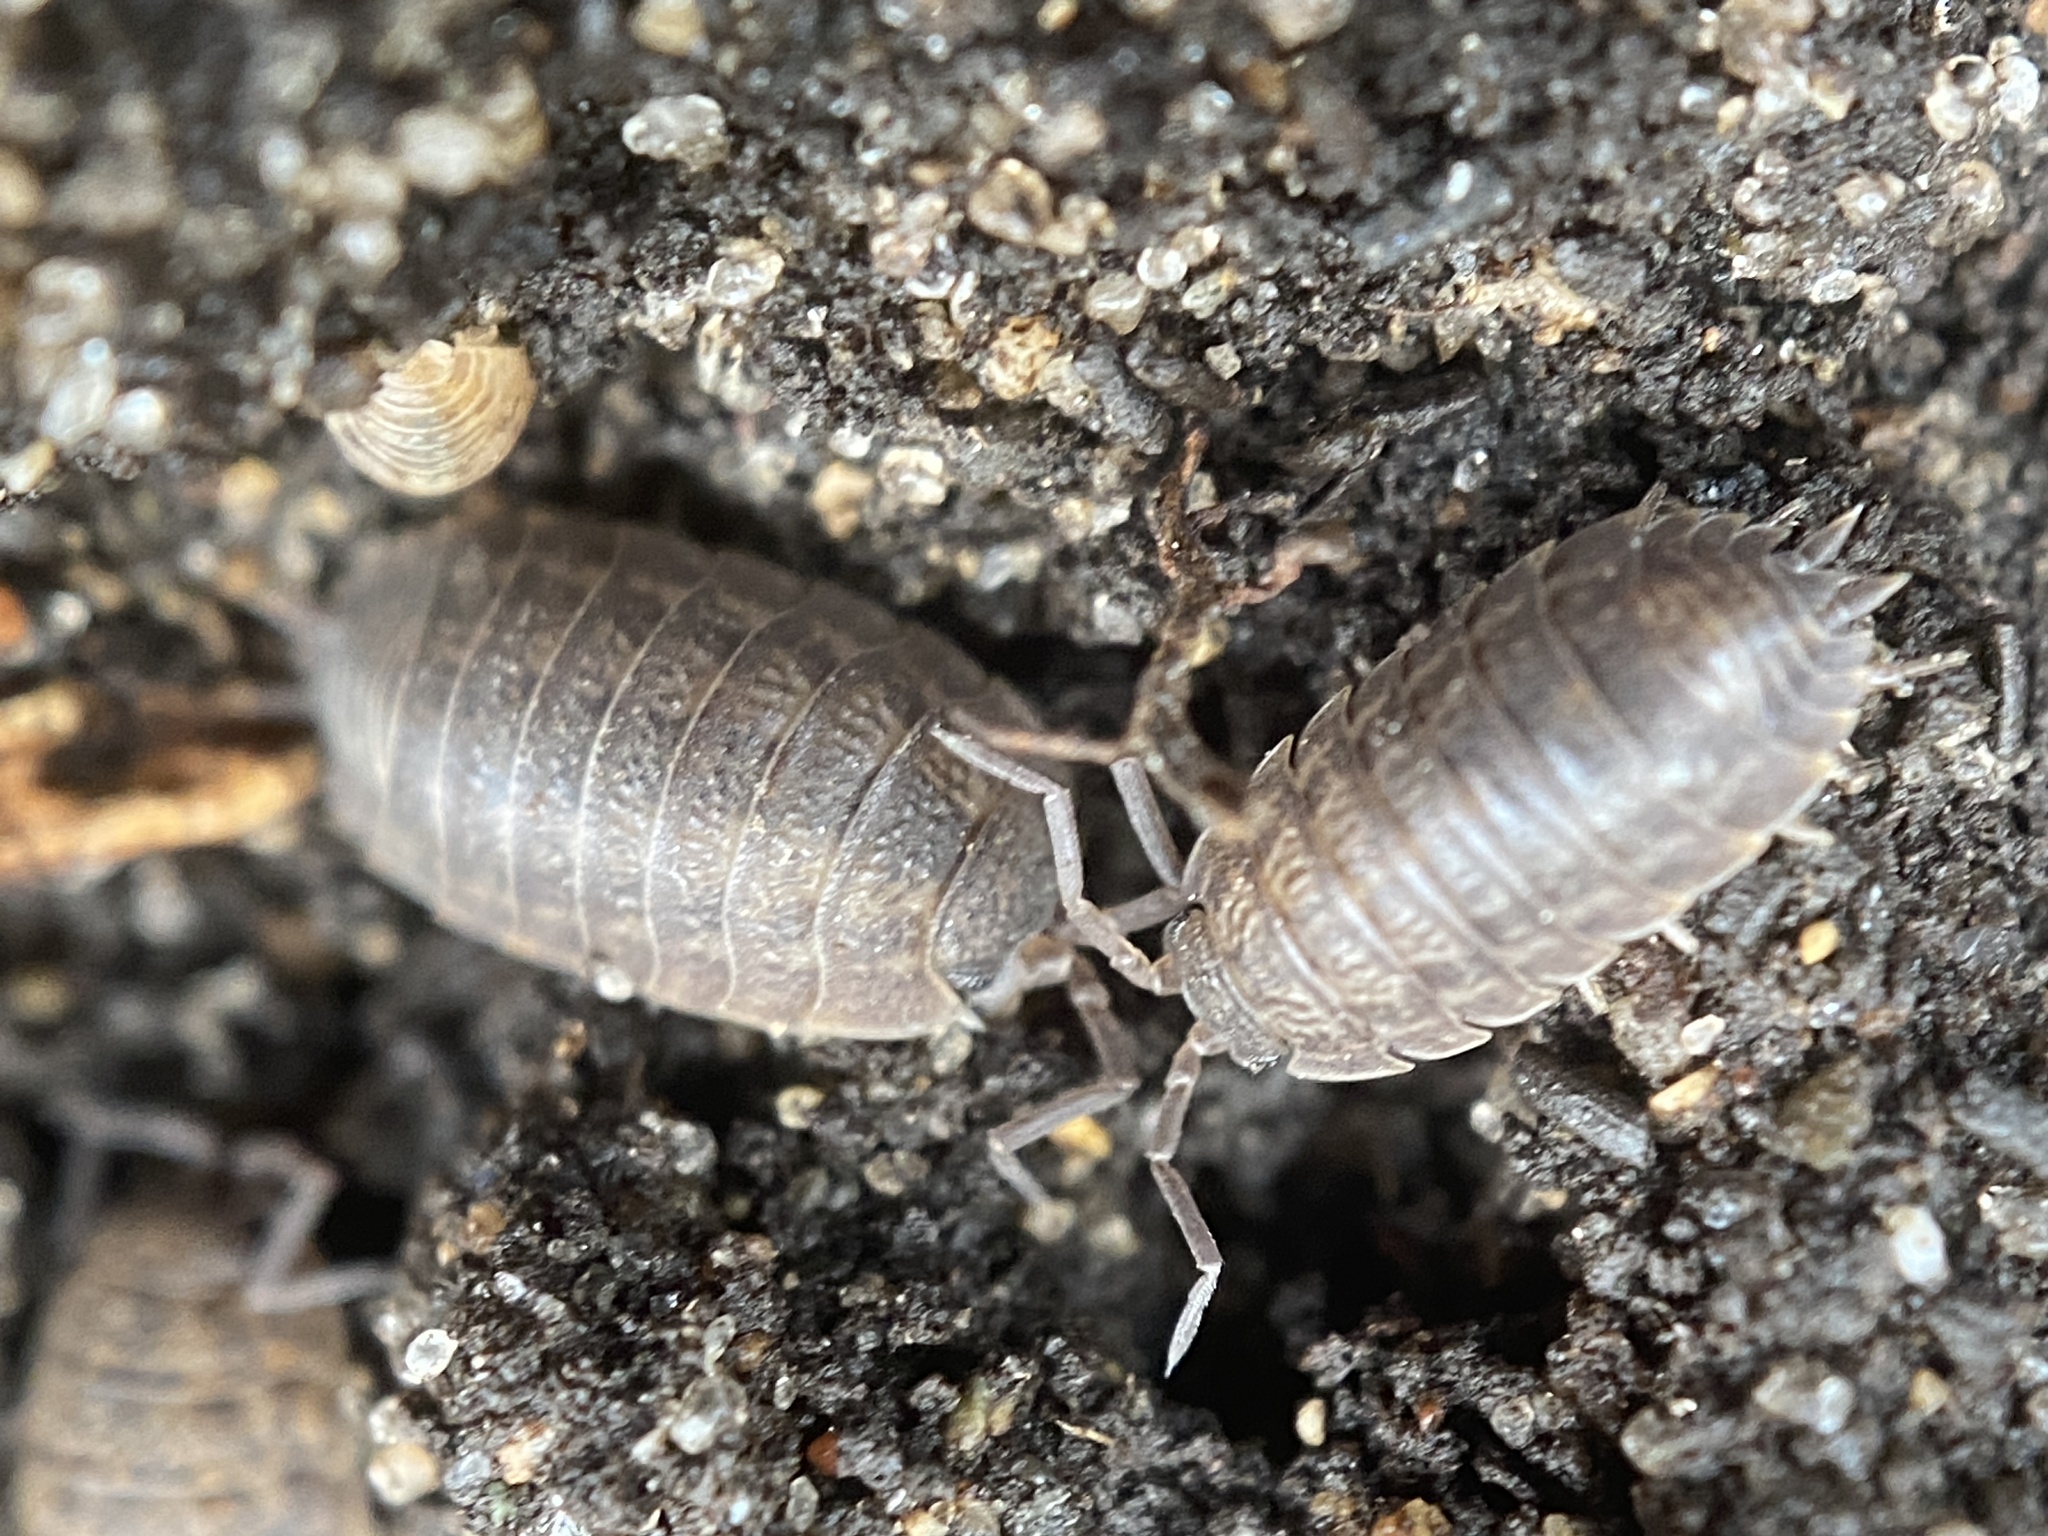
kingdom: Animalia
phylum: Arthropoda
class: Malacostraca
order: Isopoda
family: Trachelipodidae
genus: Trachelipus
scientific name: Trachelipus rathkii
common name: Isopod
